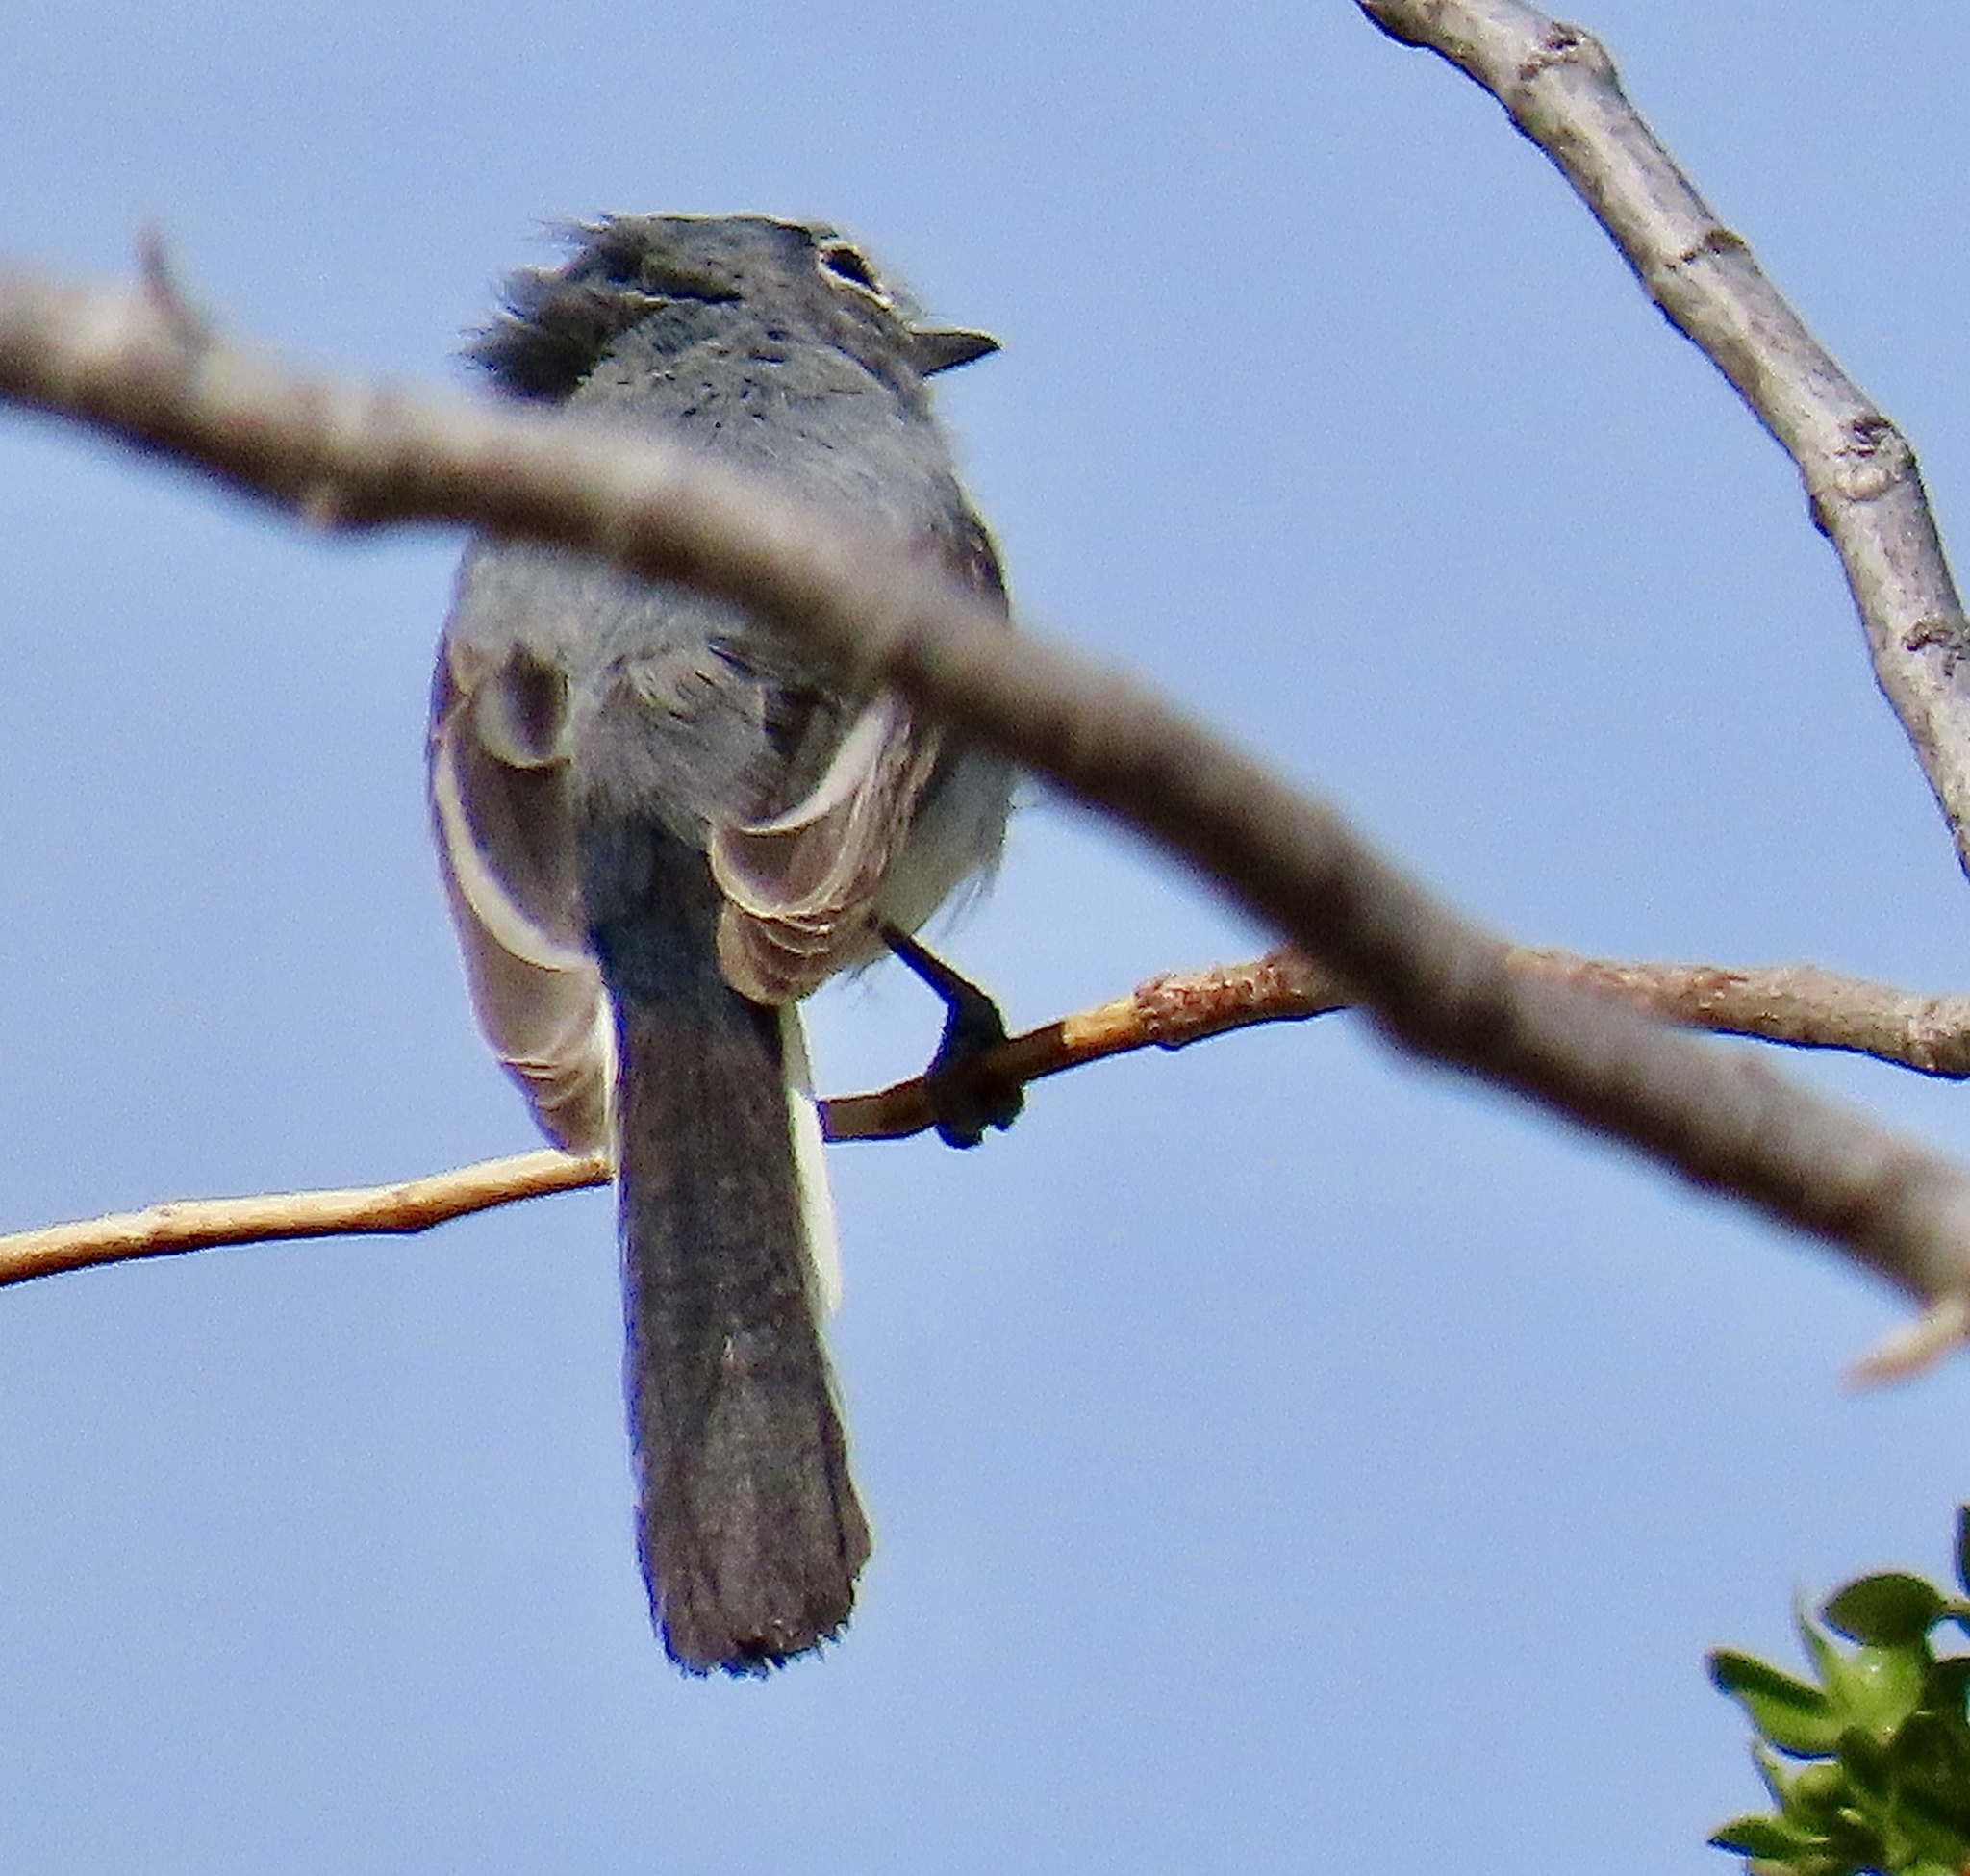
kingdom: Animalia
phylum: Chordata
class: Aves
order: Passeriformes
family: Polioptilidae
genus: Polioptila
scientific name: Polioptila caerulea
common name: Blue-gray gnatcatcher
